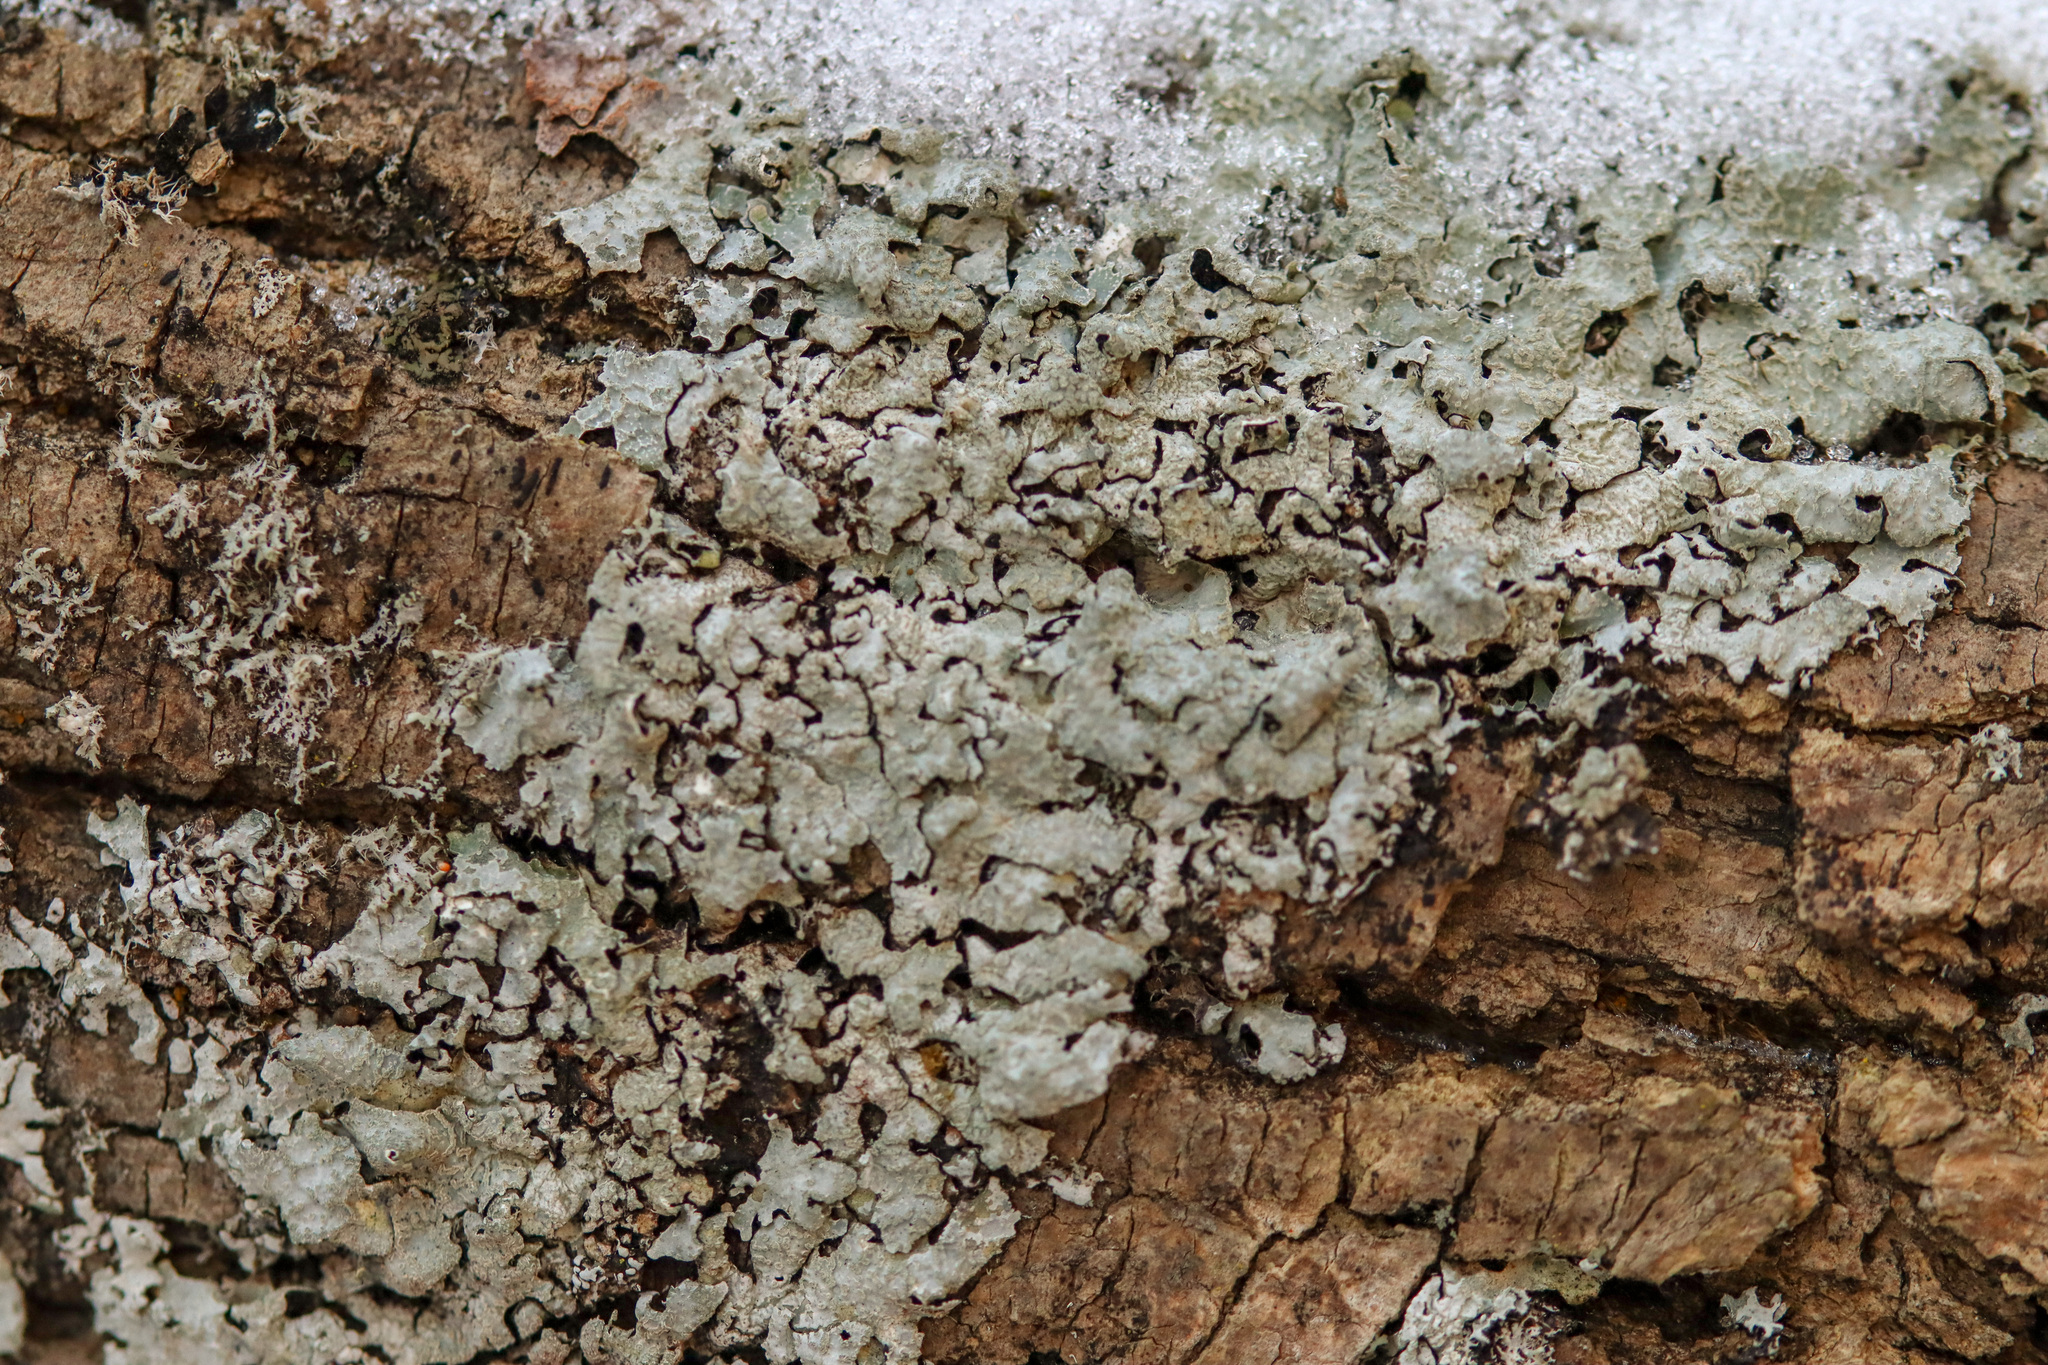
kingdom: Fungi
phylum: Ascomycota
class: Lecanoromycetes
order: Lecanorales
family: Parmeliaceae
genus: Parmelia
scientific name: Parmelia sulcata
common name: Netted shield lichen
